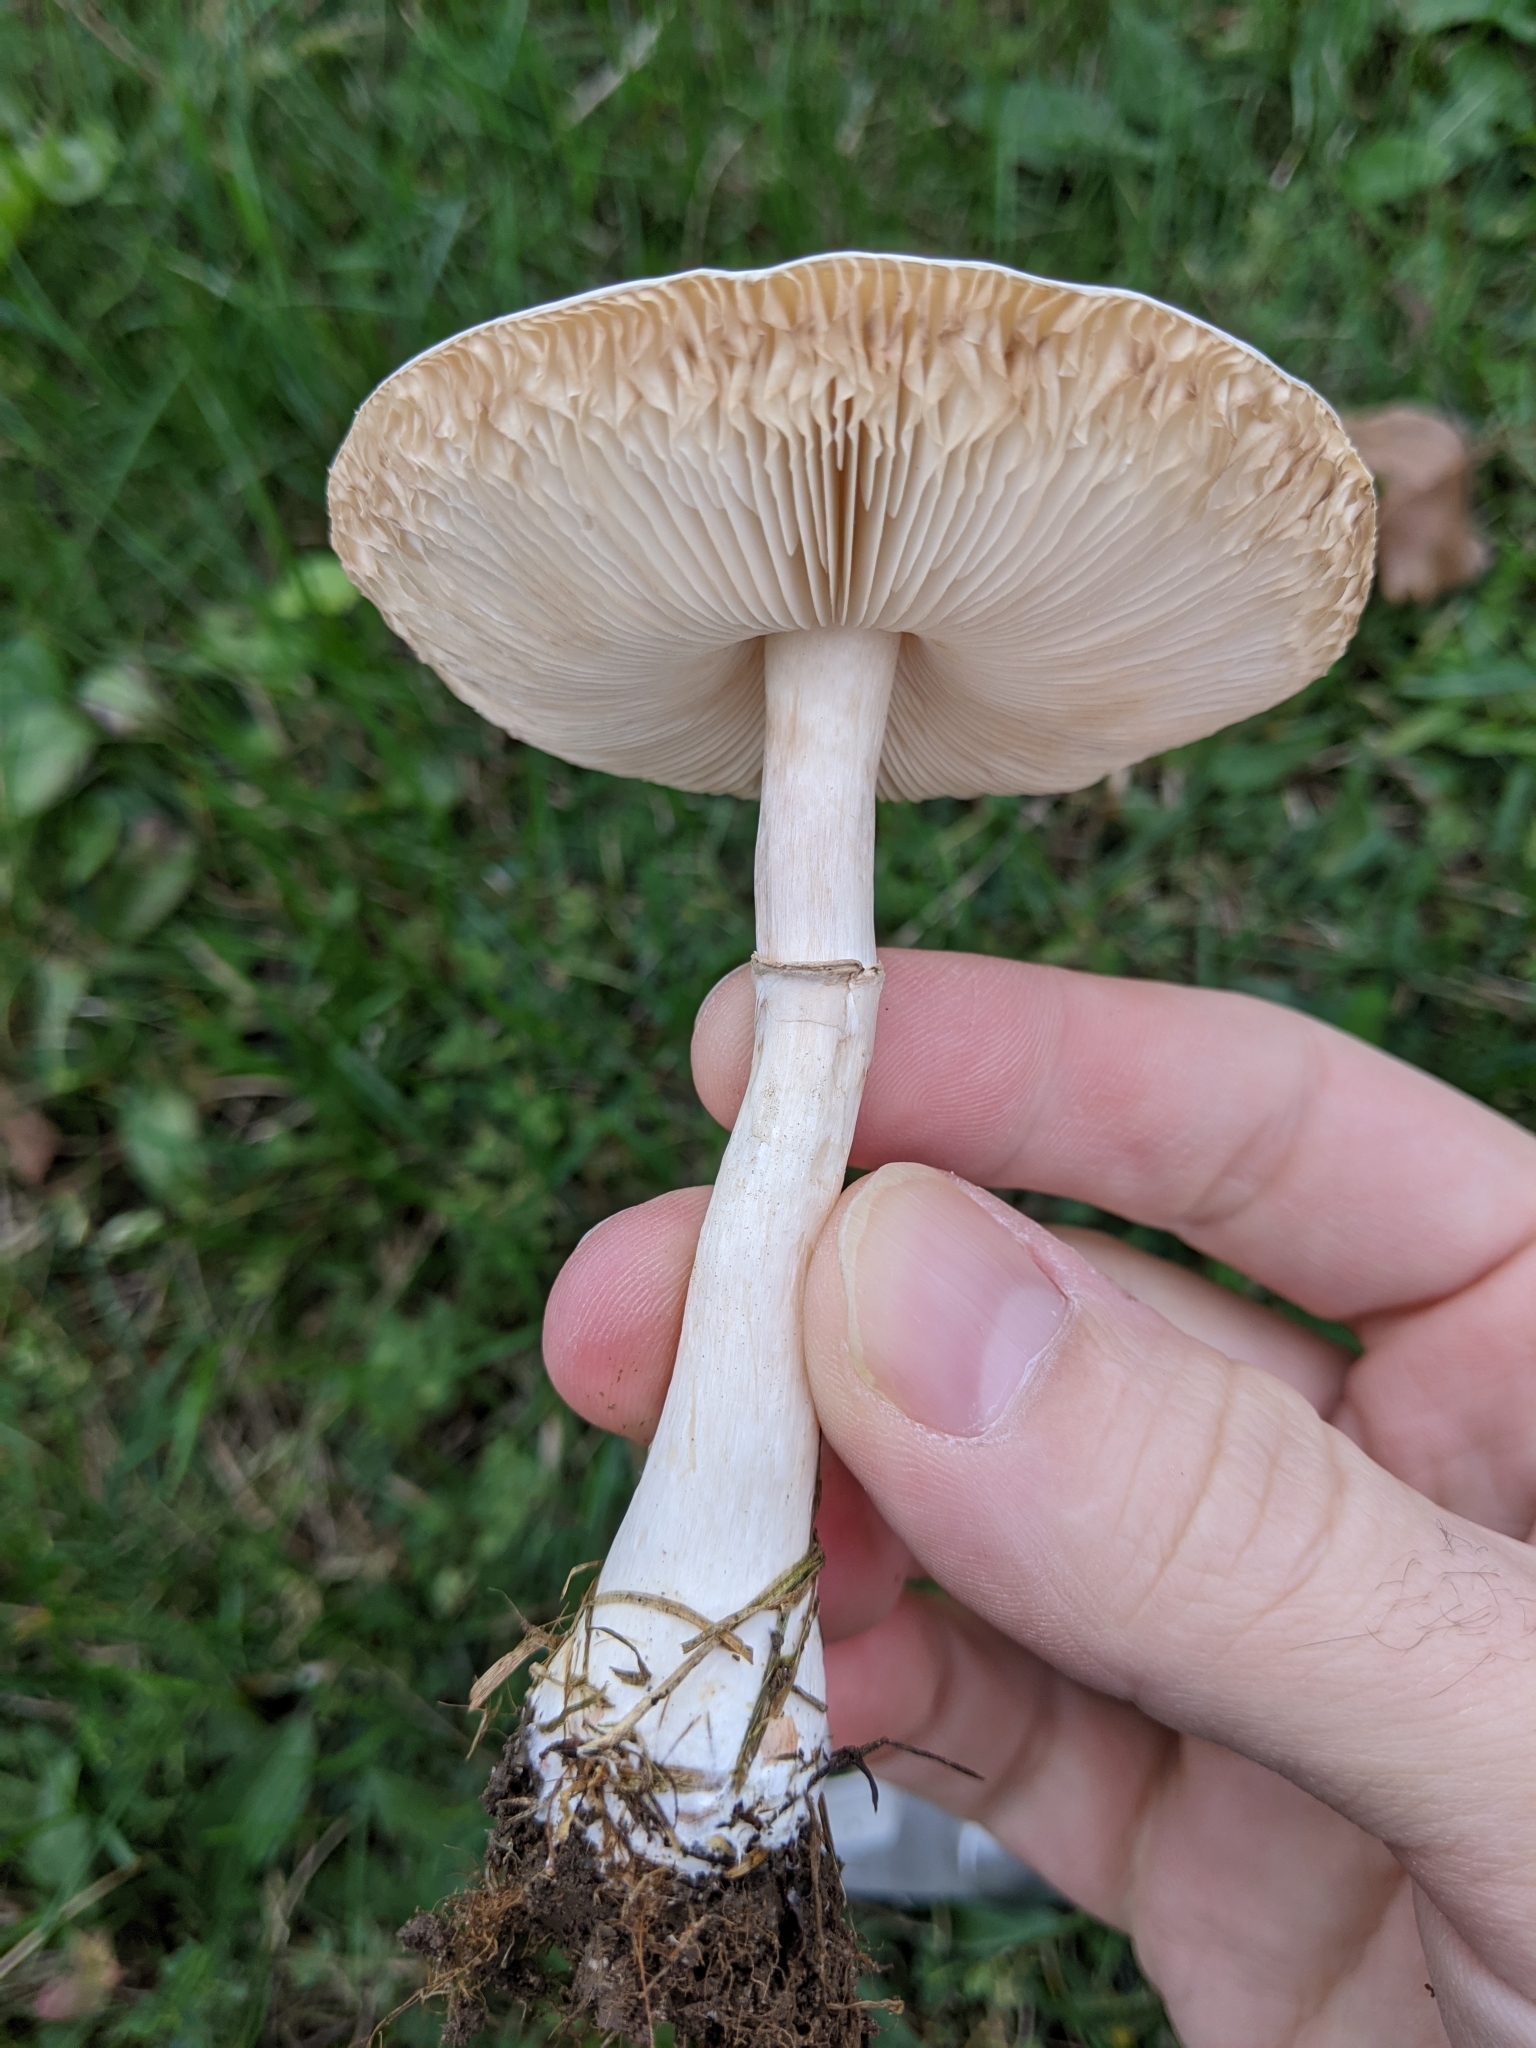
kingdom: Fungi
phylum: Basidiomycota
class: Agaricomycetes
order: Agaricales
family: Agaricaceae
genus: Leucoagaricus
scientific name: Leucoagaricus leucothites
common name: White dapperling
